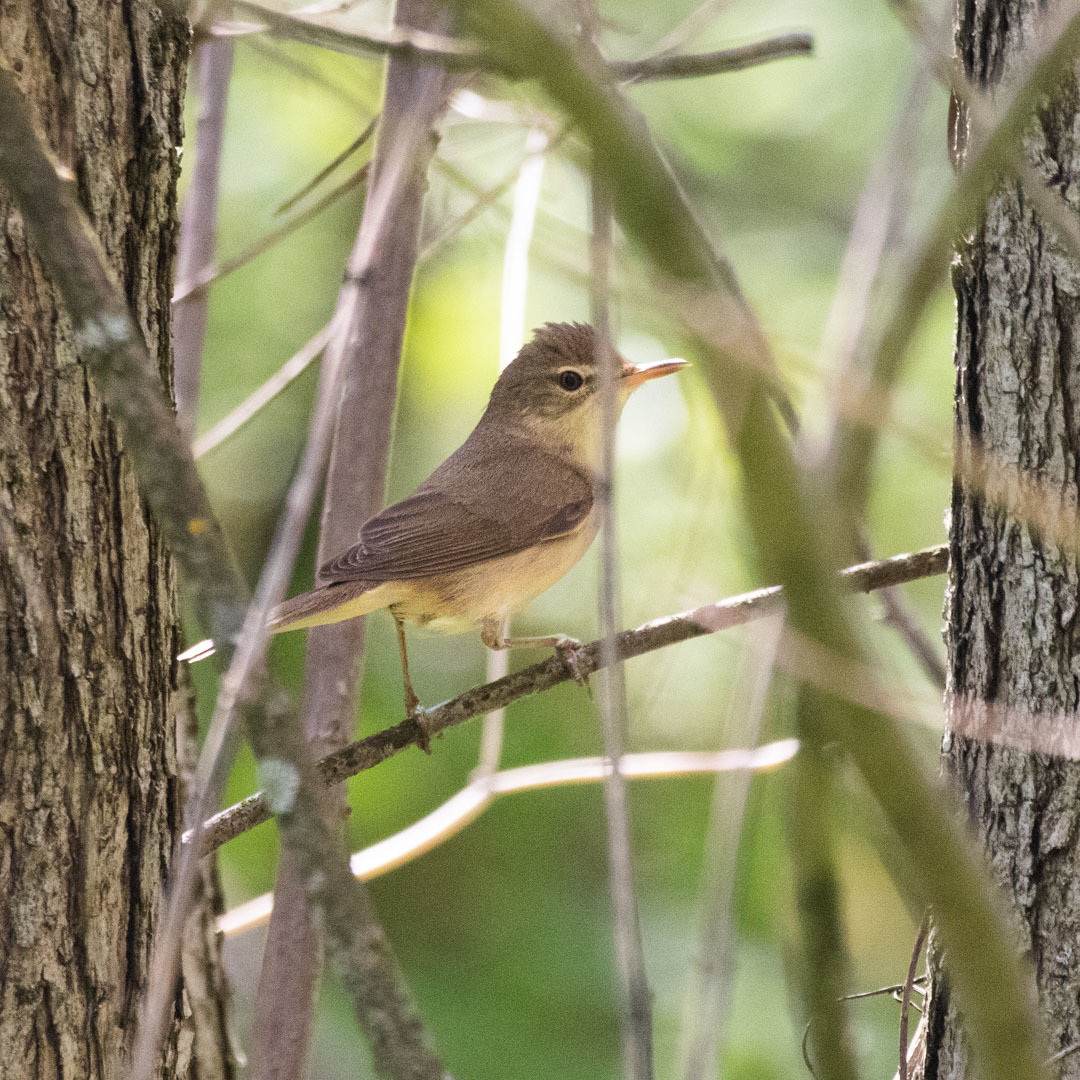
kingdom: Animalia
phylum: Chordata
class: Aves
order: Passeriformes
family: Acrocephalidae
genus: Acrocephalus
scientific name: Acrocephalus dumetorum
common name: Blyth's reed warbler
